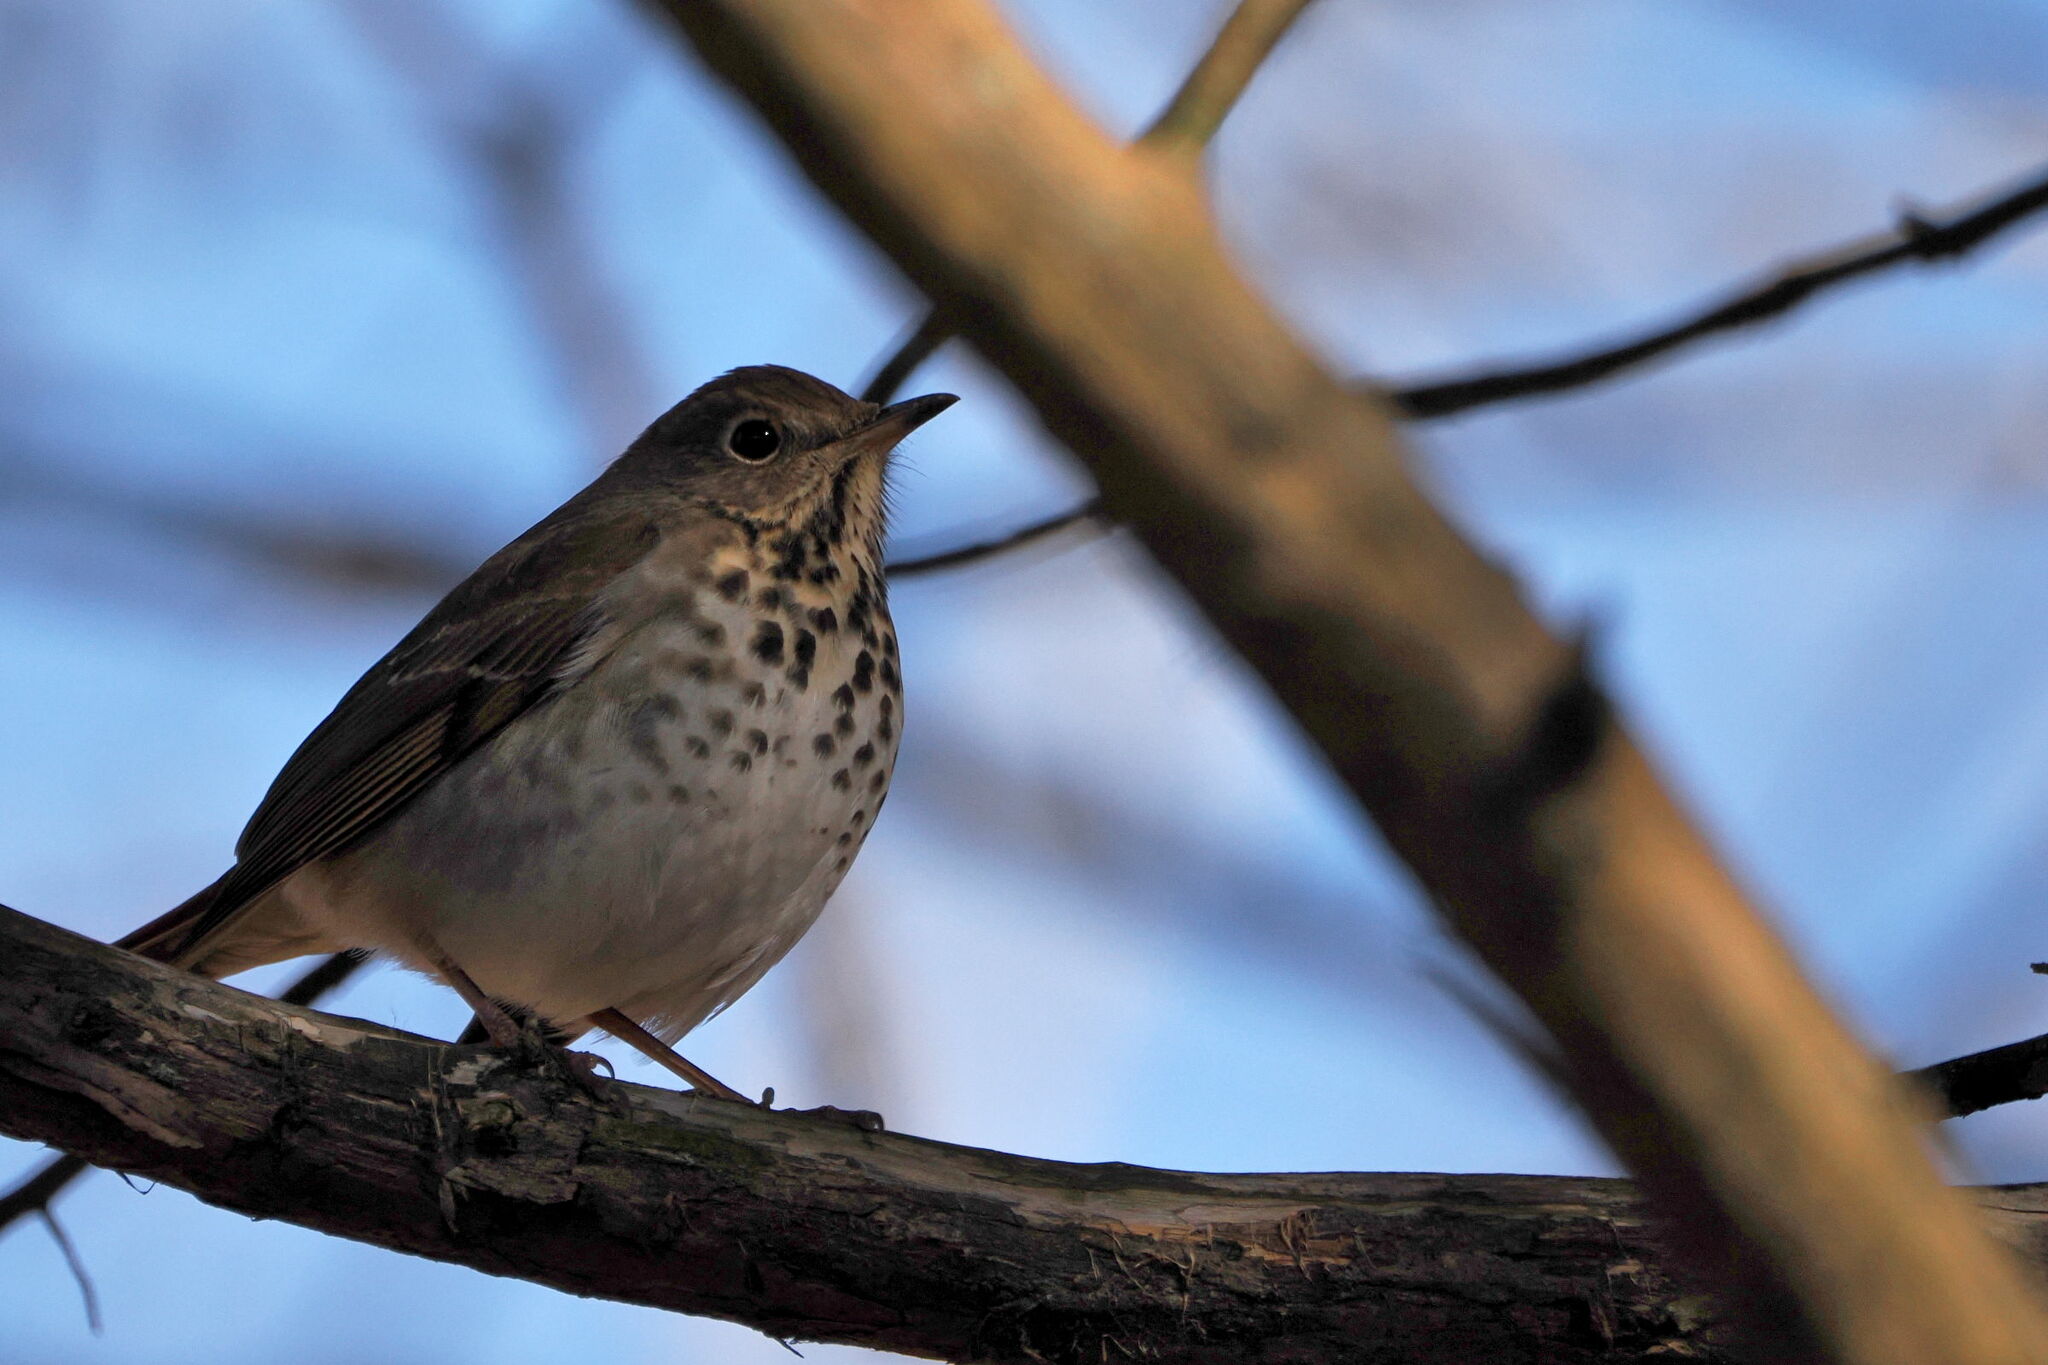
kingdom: Animalia
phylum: Chordata
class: Aves
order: Passeriformes
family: Turdidae
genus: Catharus
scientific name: Catharus guttatus
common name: Hermit thrush
